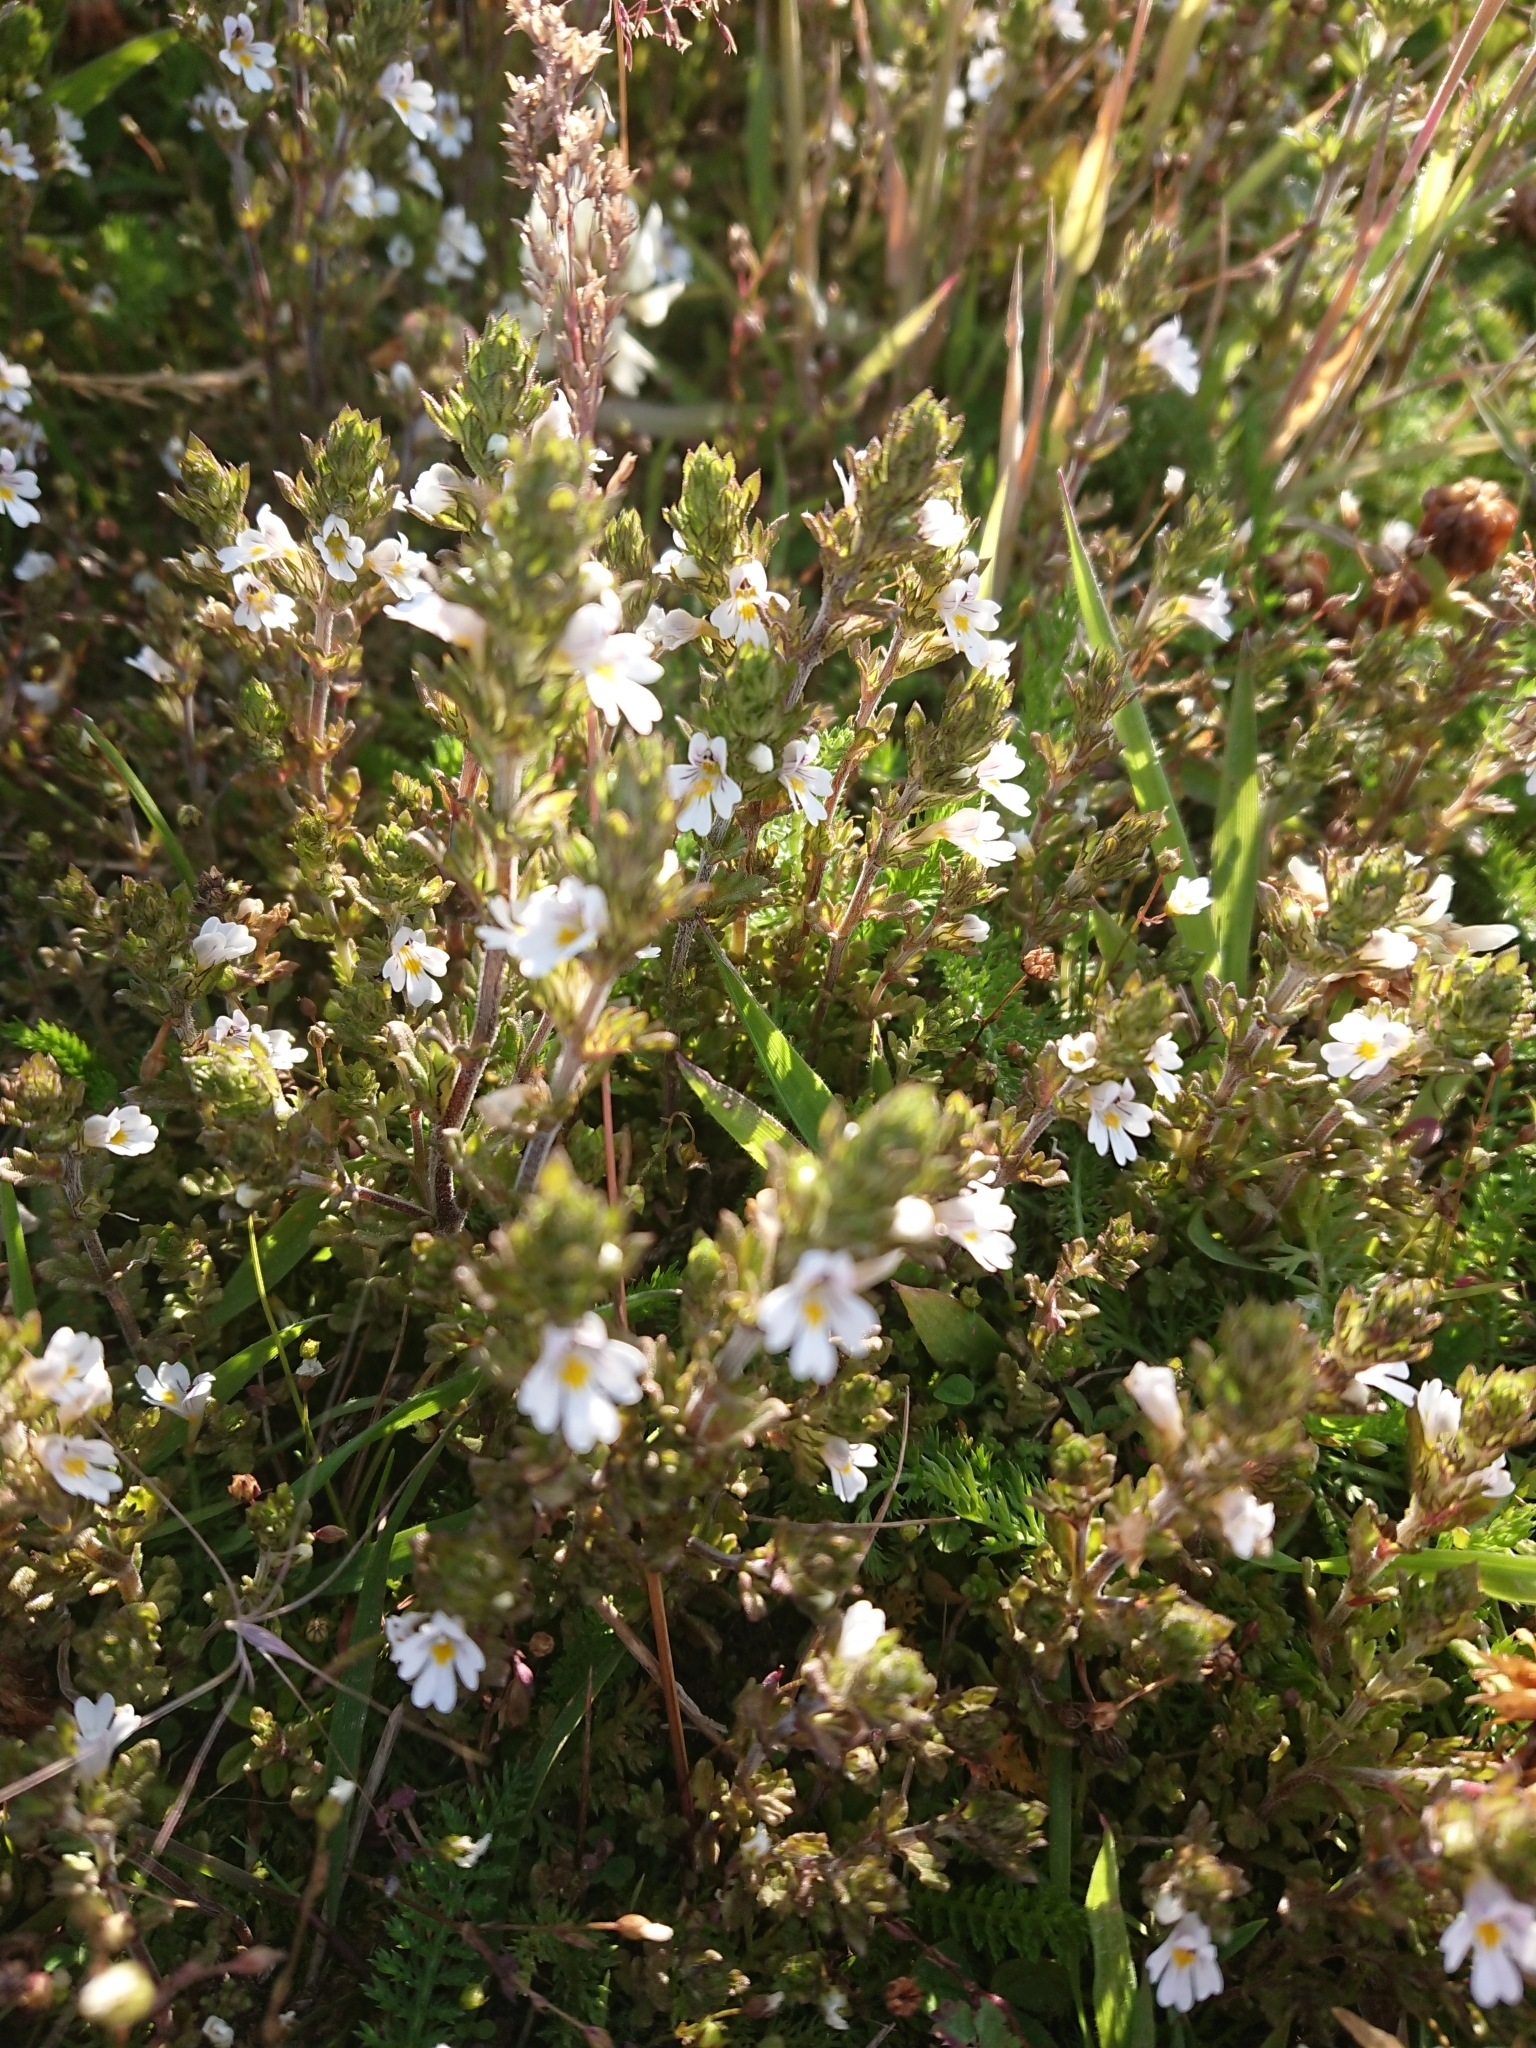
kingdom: Plantae
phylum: Tracheophyta
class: Magnoliopsida
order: Lamiales
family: Orobanchaceae
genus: Euphrasia
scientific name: Euphrasia officinalis
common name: Eyebright
